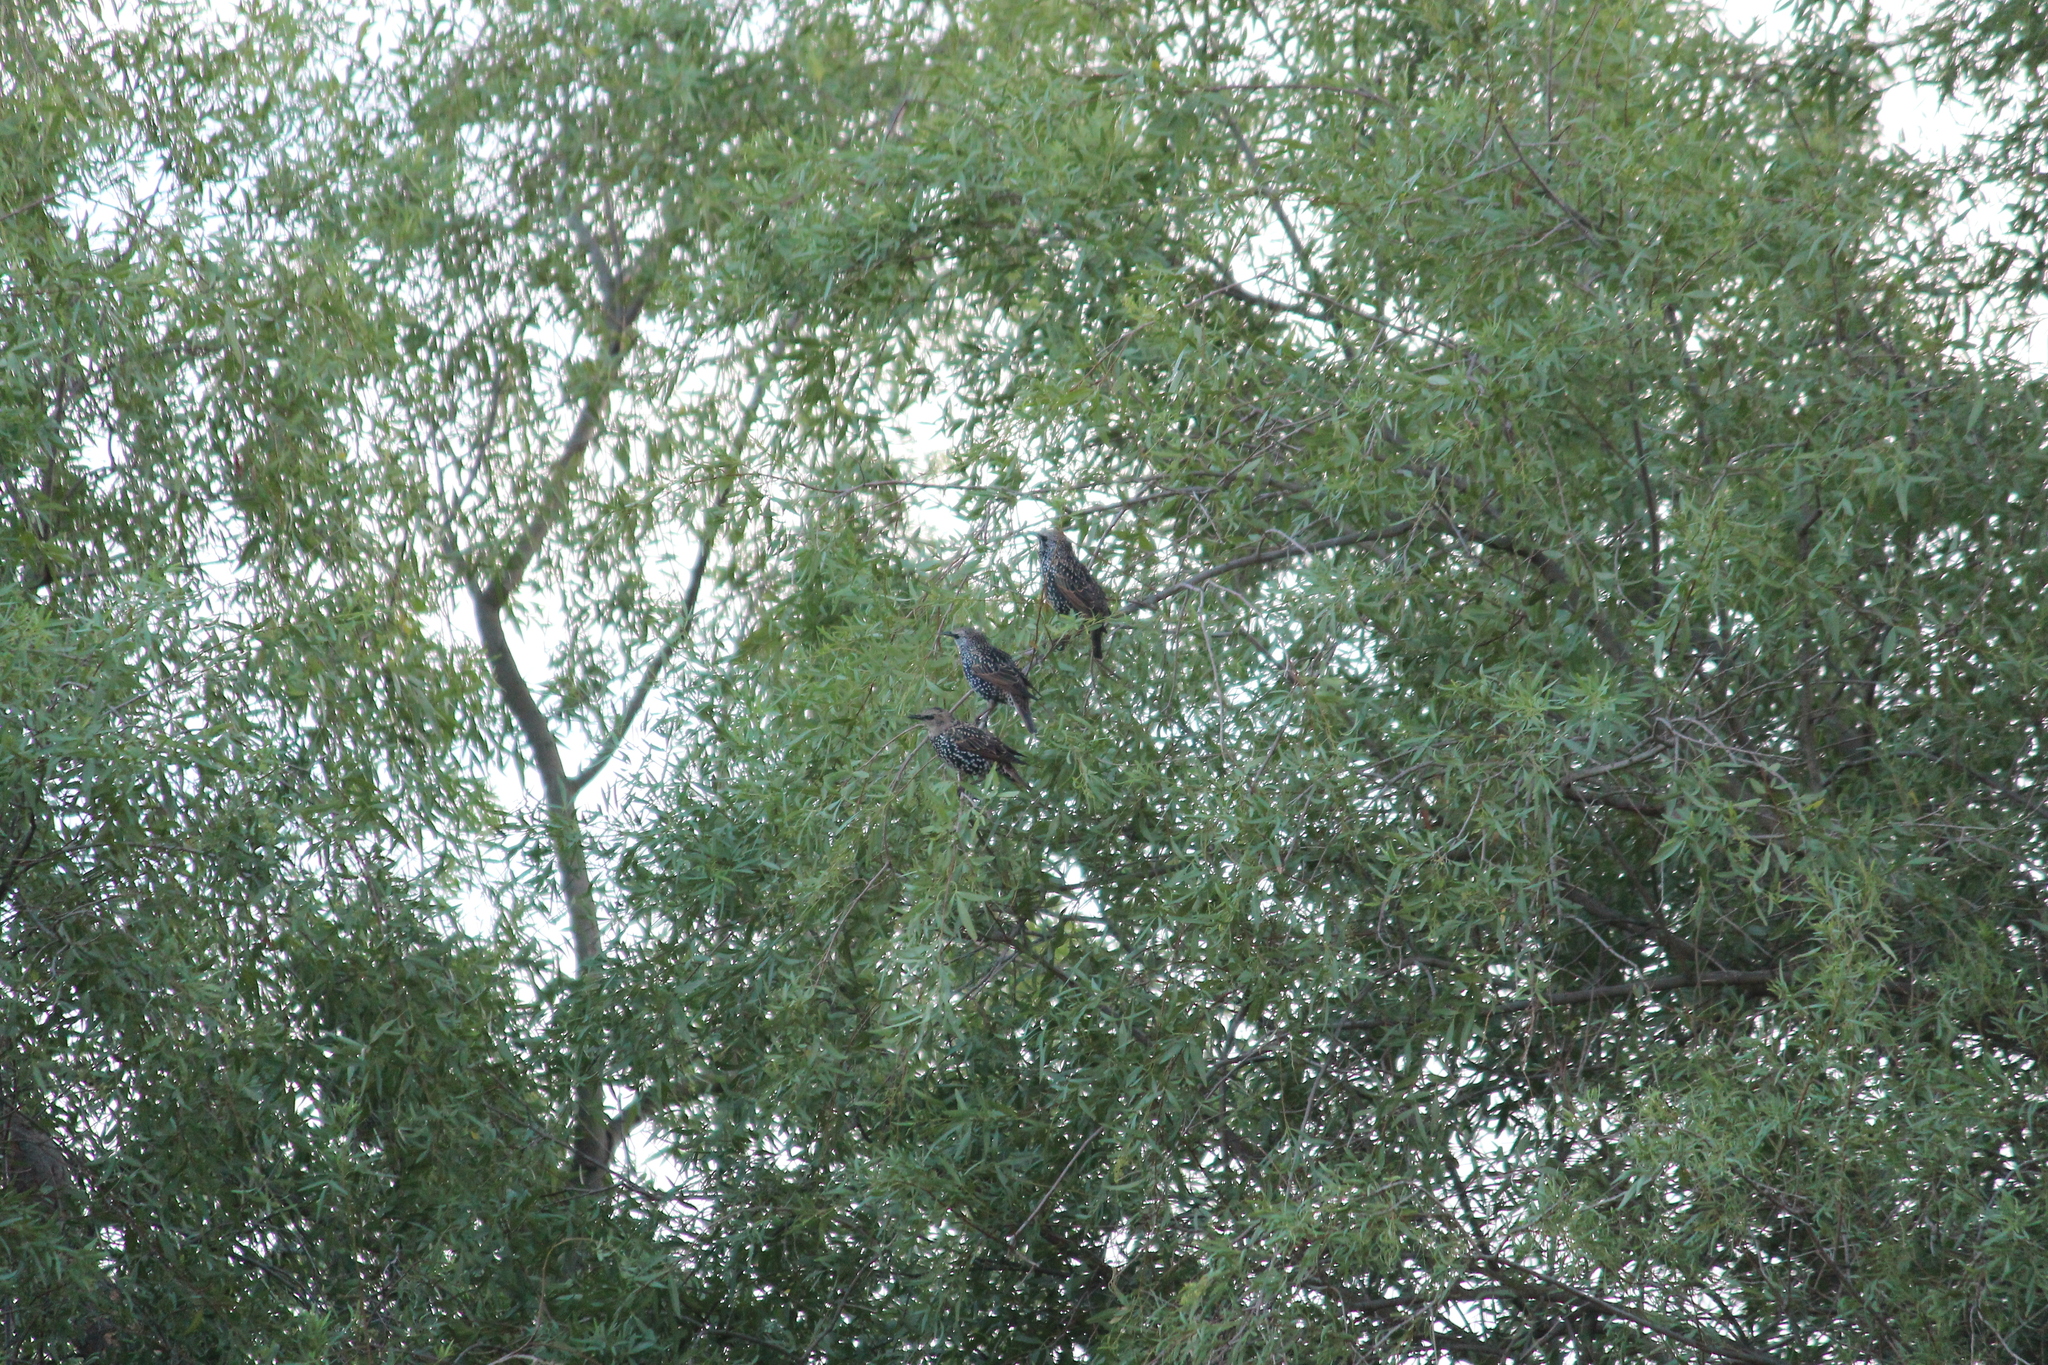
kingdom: Animalia
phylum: Chordata
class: Aves
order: Passeriformes
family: Sturnidae
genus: Sturnus
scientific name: Sturnus vulgaris
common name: Common starling
